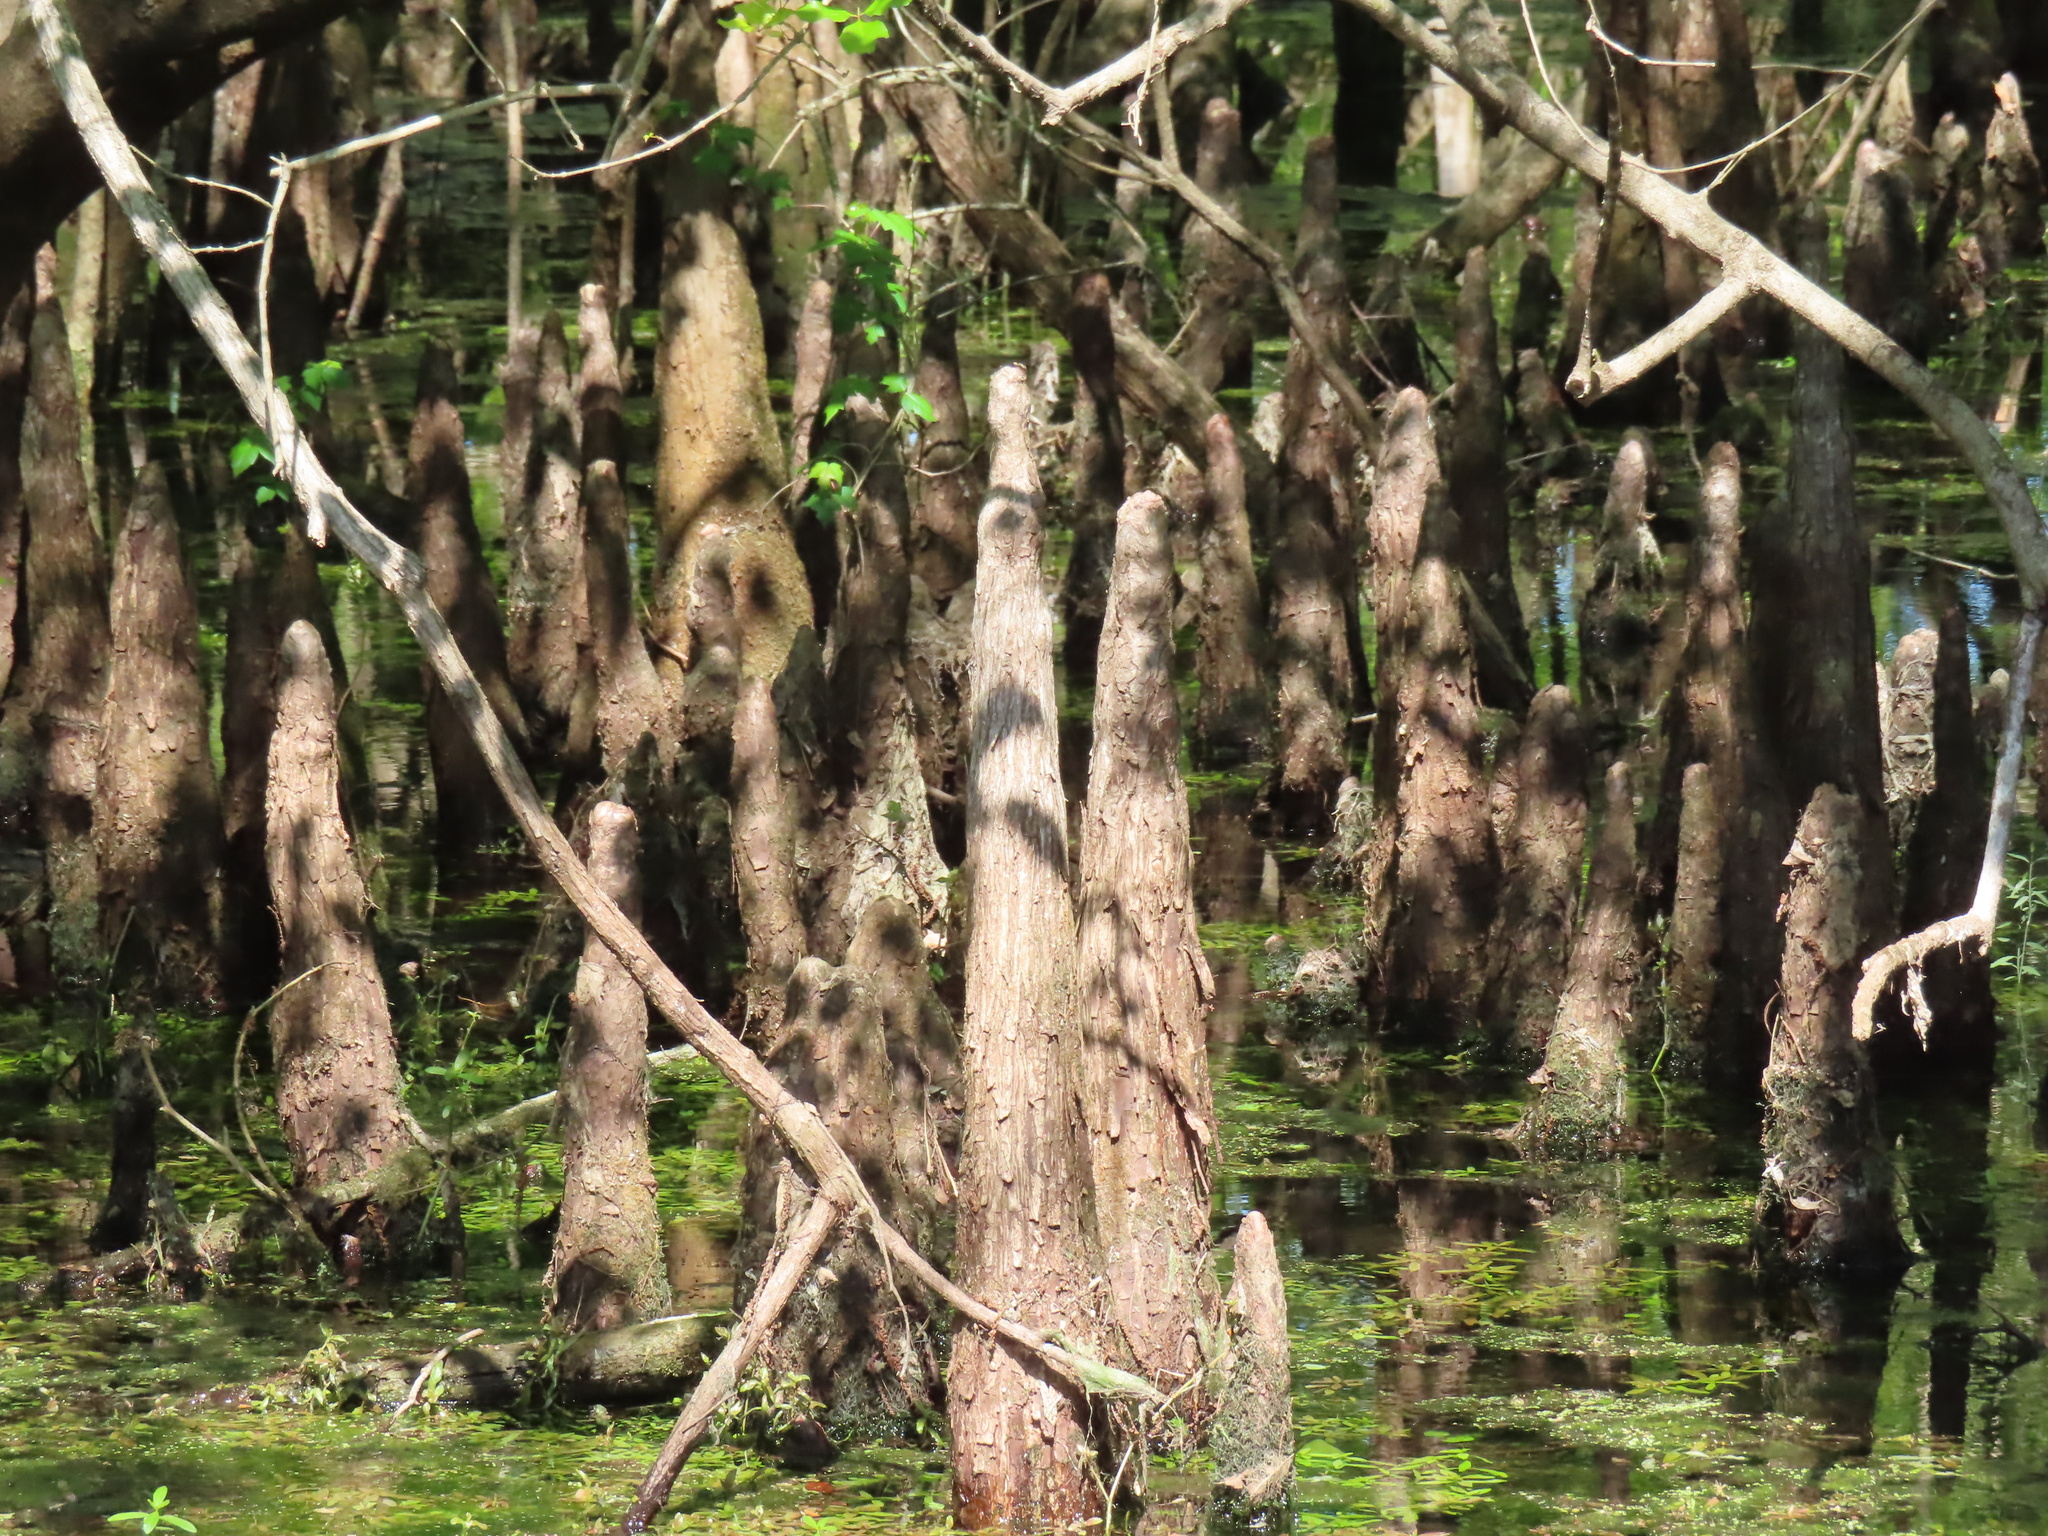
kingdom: Plantae
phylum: Tracheophyta
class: Pinopsida
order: Pinales
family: Cupressaceae
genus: Taxodium
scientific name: Taxodium distichum
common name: Bald cypress
